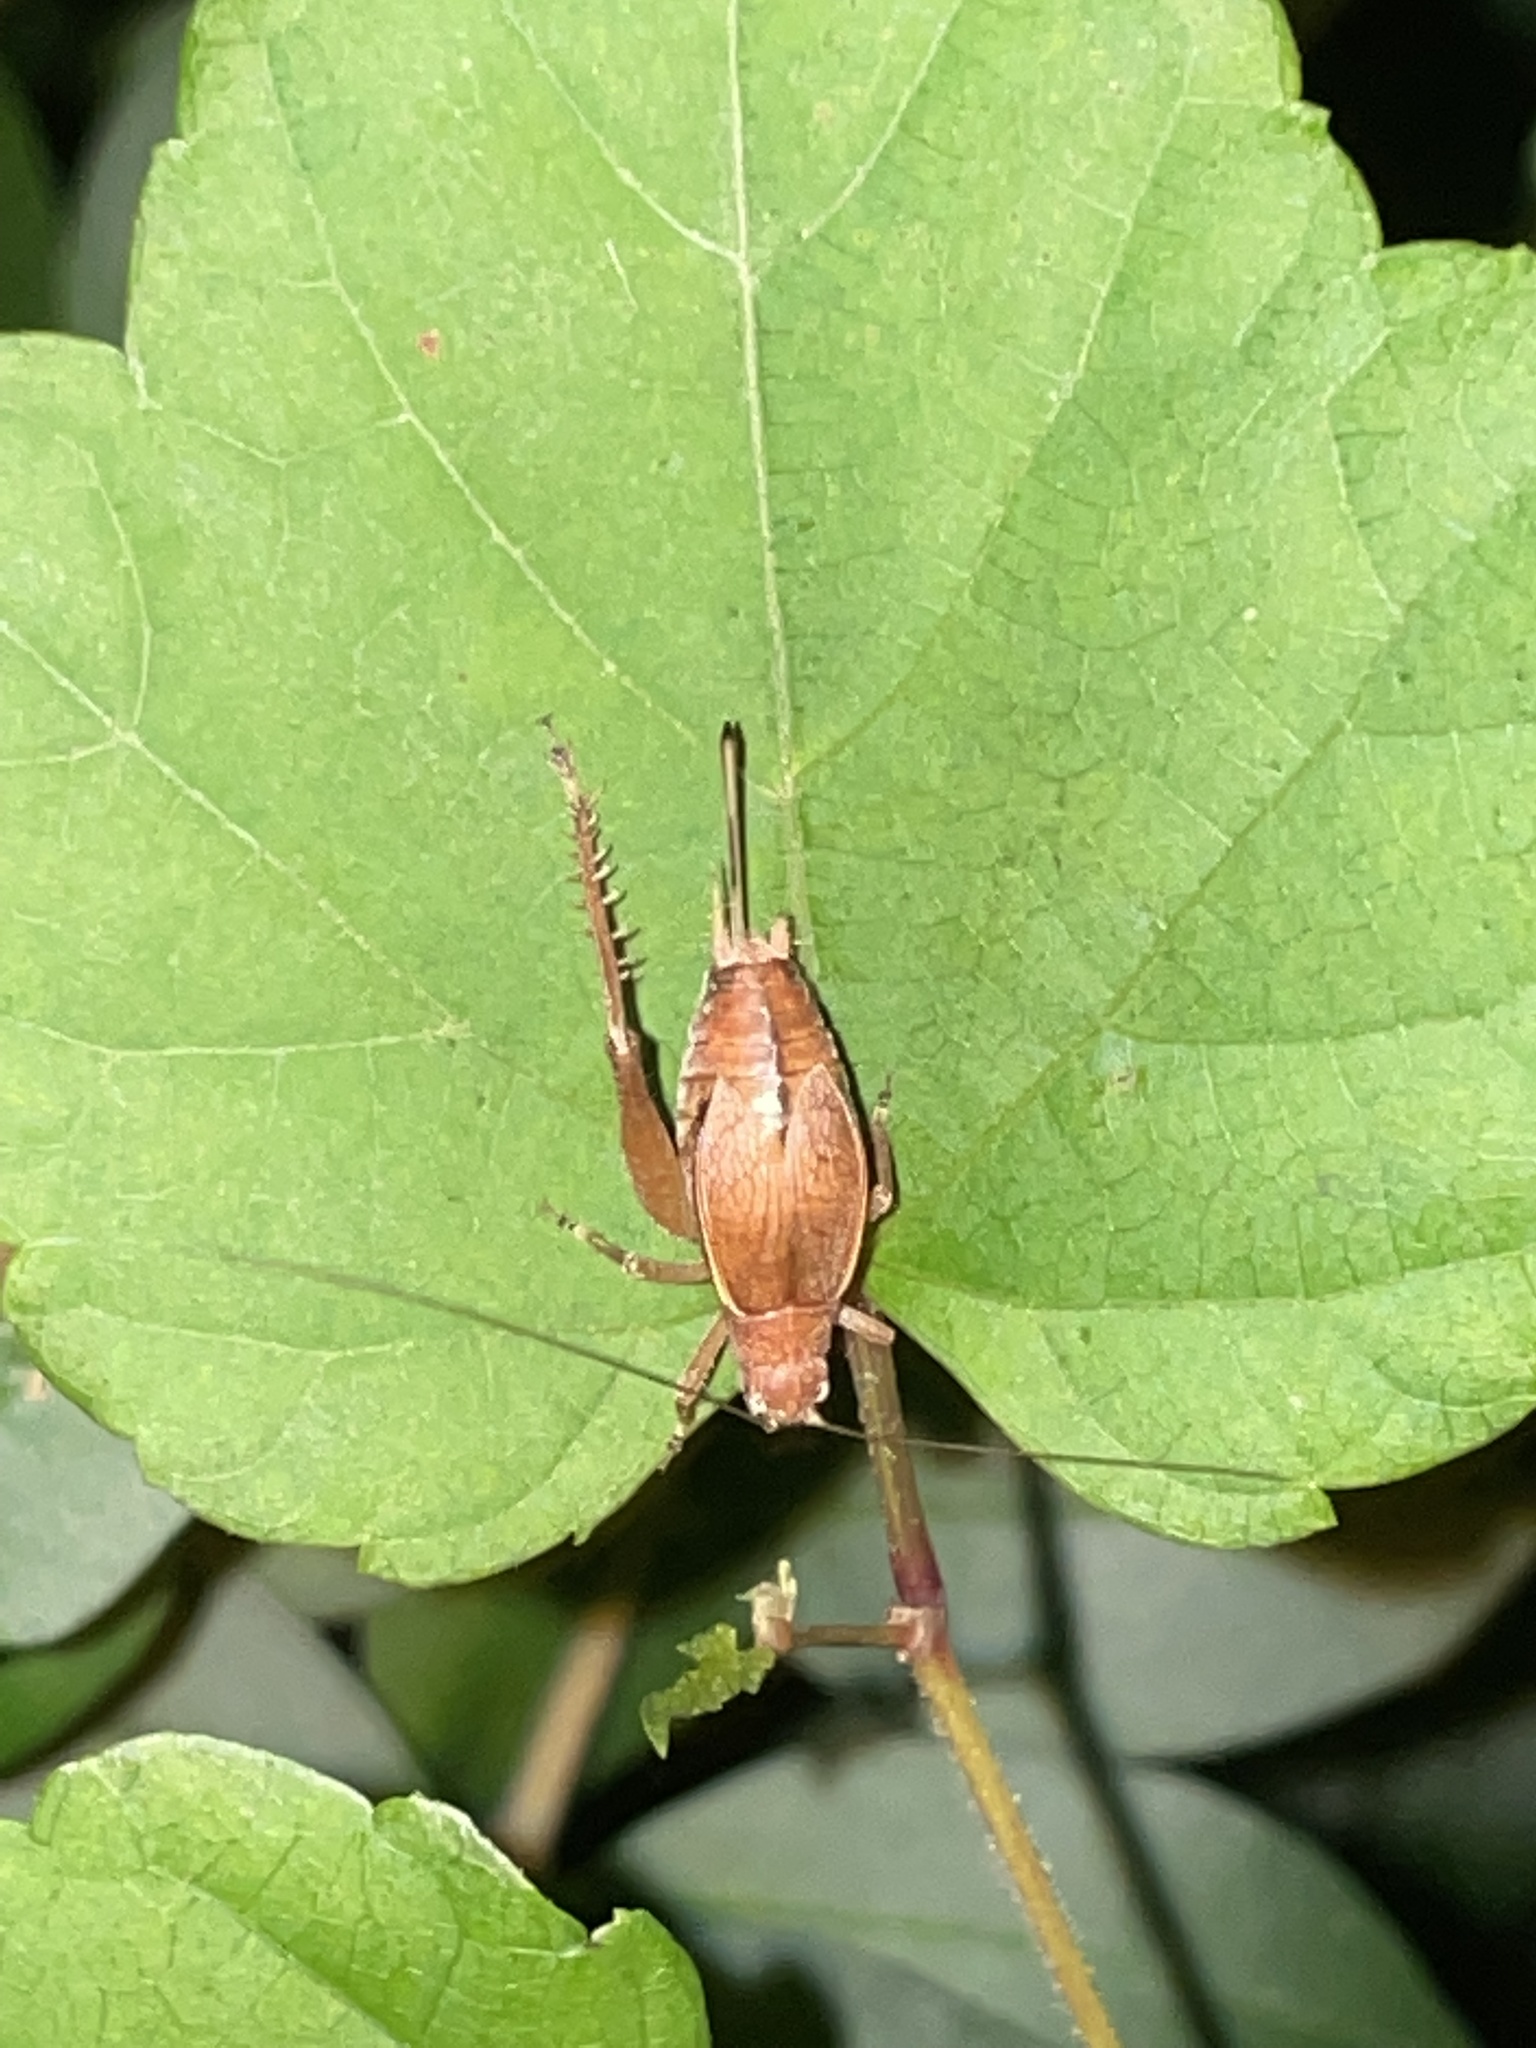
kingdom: Animalia
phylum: Arthropoda
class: Insecta
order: Orthoptera
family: Gryllidae
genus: Hapithus
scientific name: Hapithus agitator
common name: Restless bush cricket
